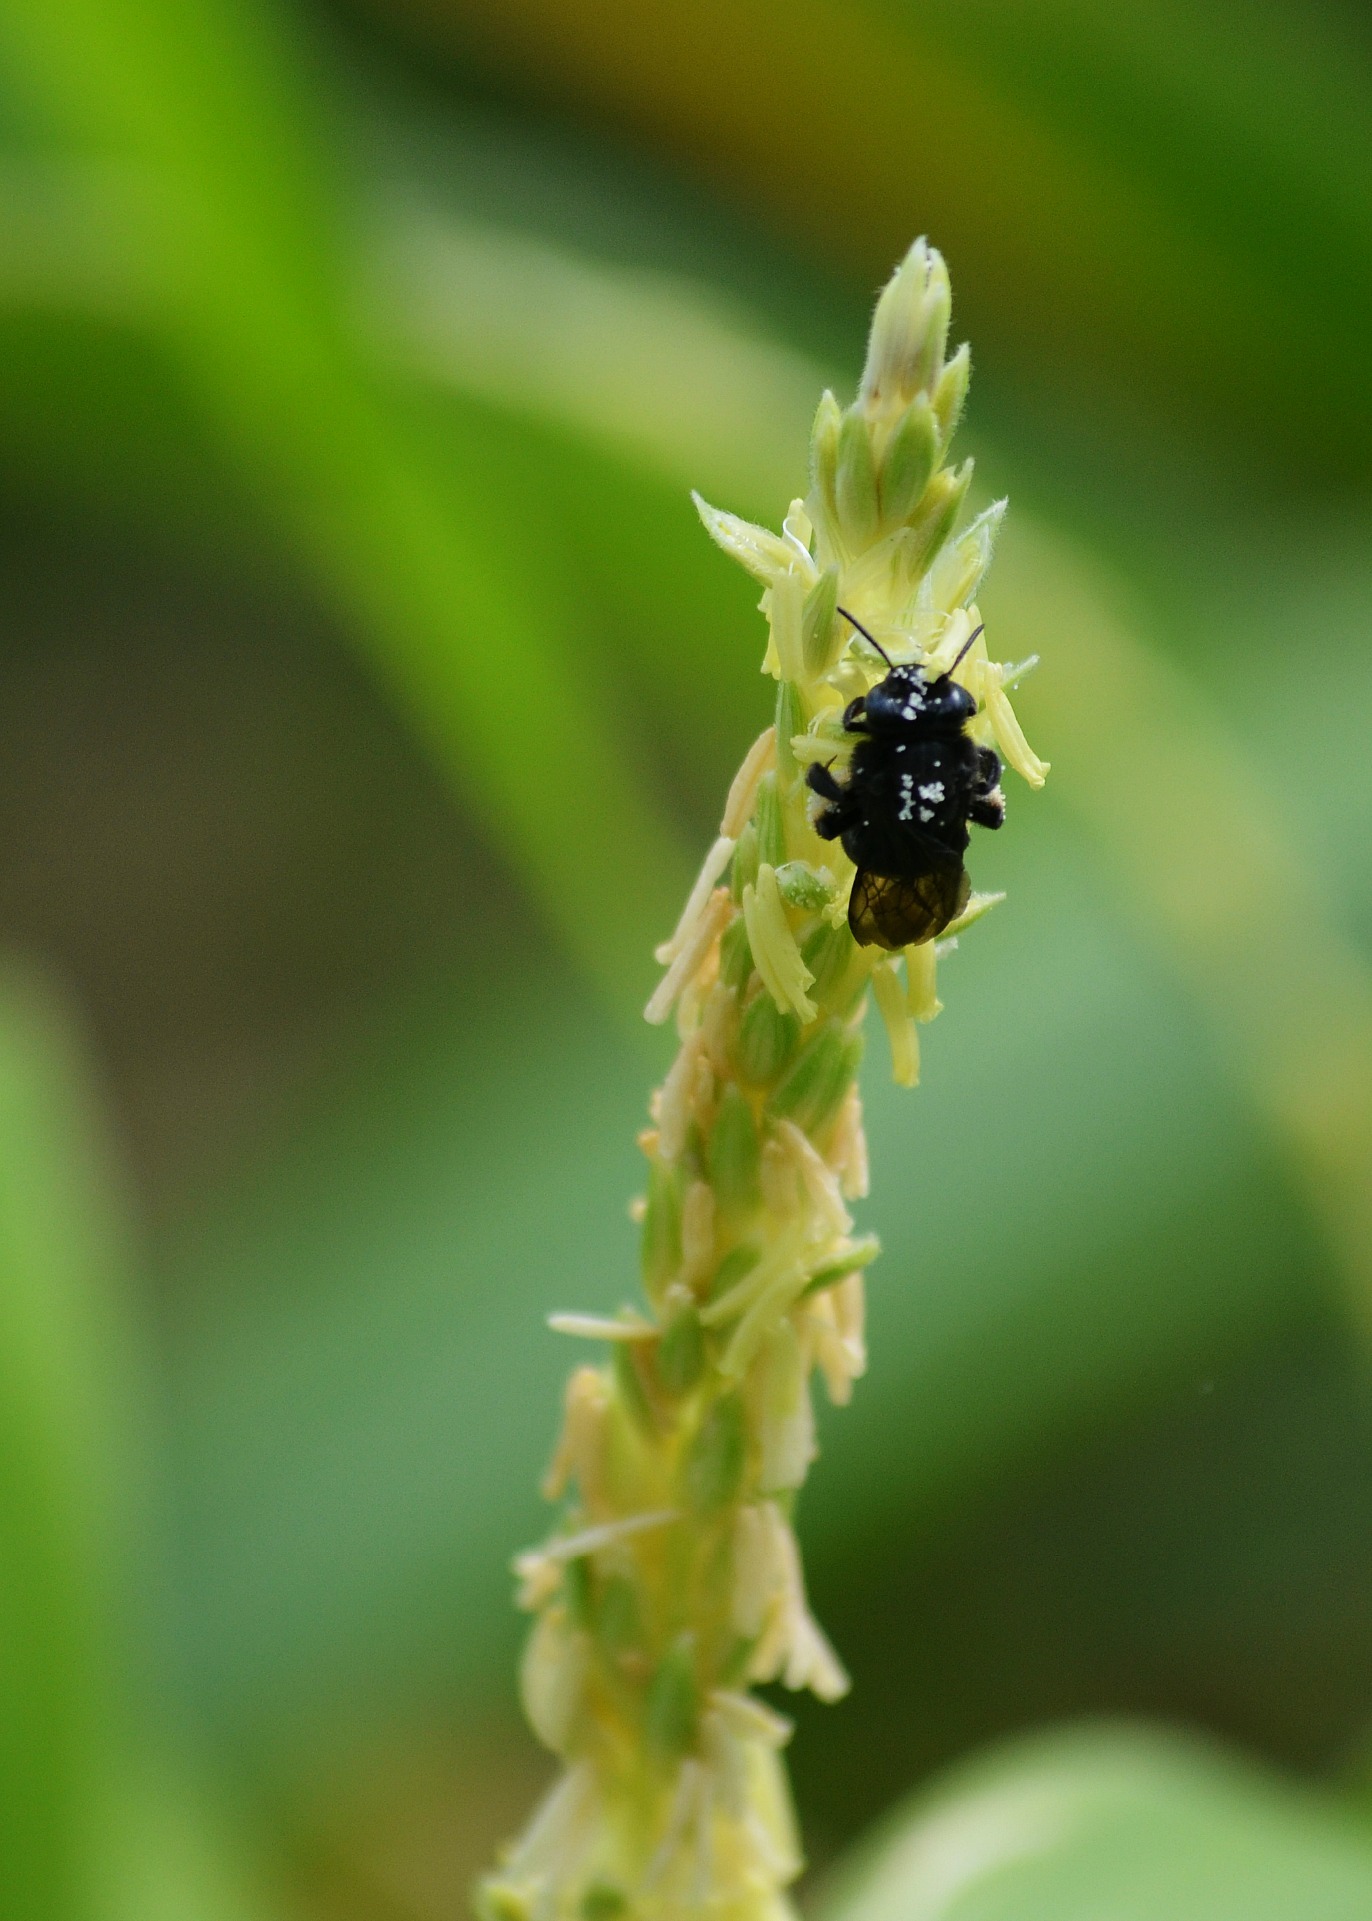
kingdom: Animalia
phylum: Arthropoda
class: Insecta
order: Hymenoptera
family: Apidae
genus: Melissodes
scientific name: Melissodes bimaculatus
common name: Two-spotted long-horned bee
